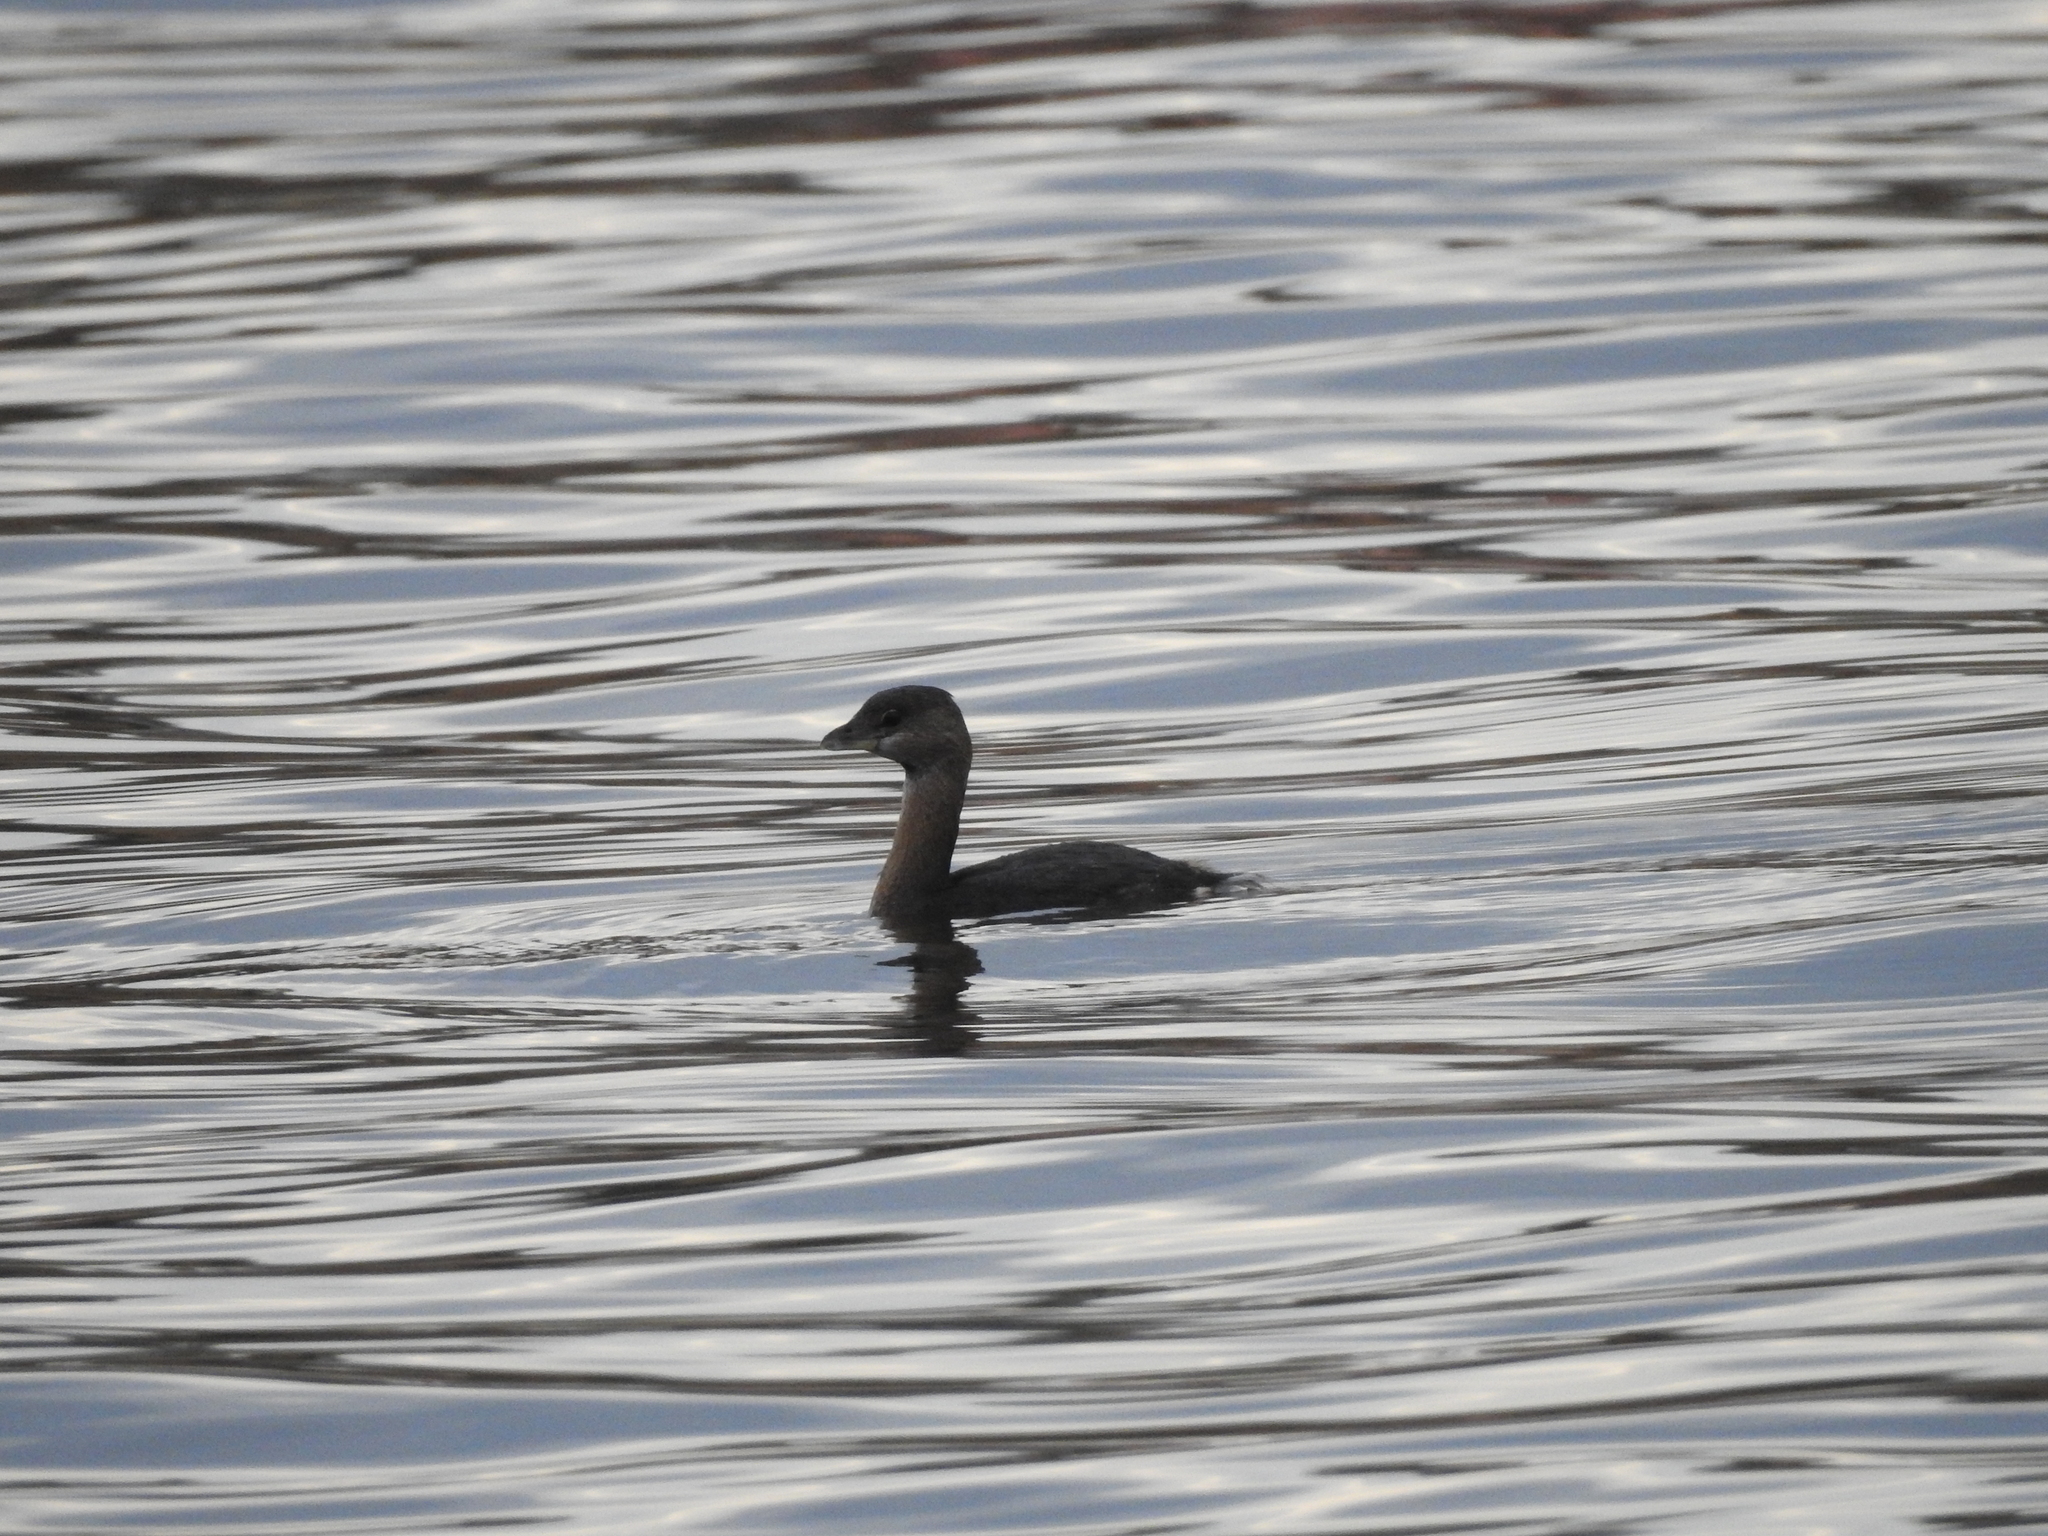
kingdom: Animalia
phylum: Chordata
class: Aves
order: Podicipediformes
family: Podicipedidae
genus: Podilymbus
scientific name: Podilymbus podiceps
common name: Pied-billed grebe
